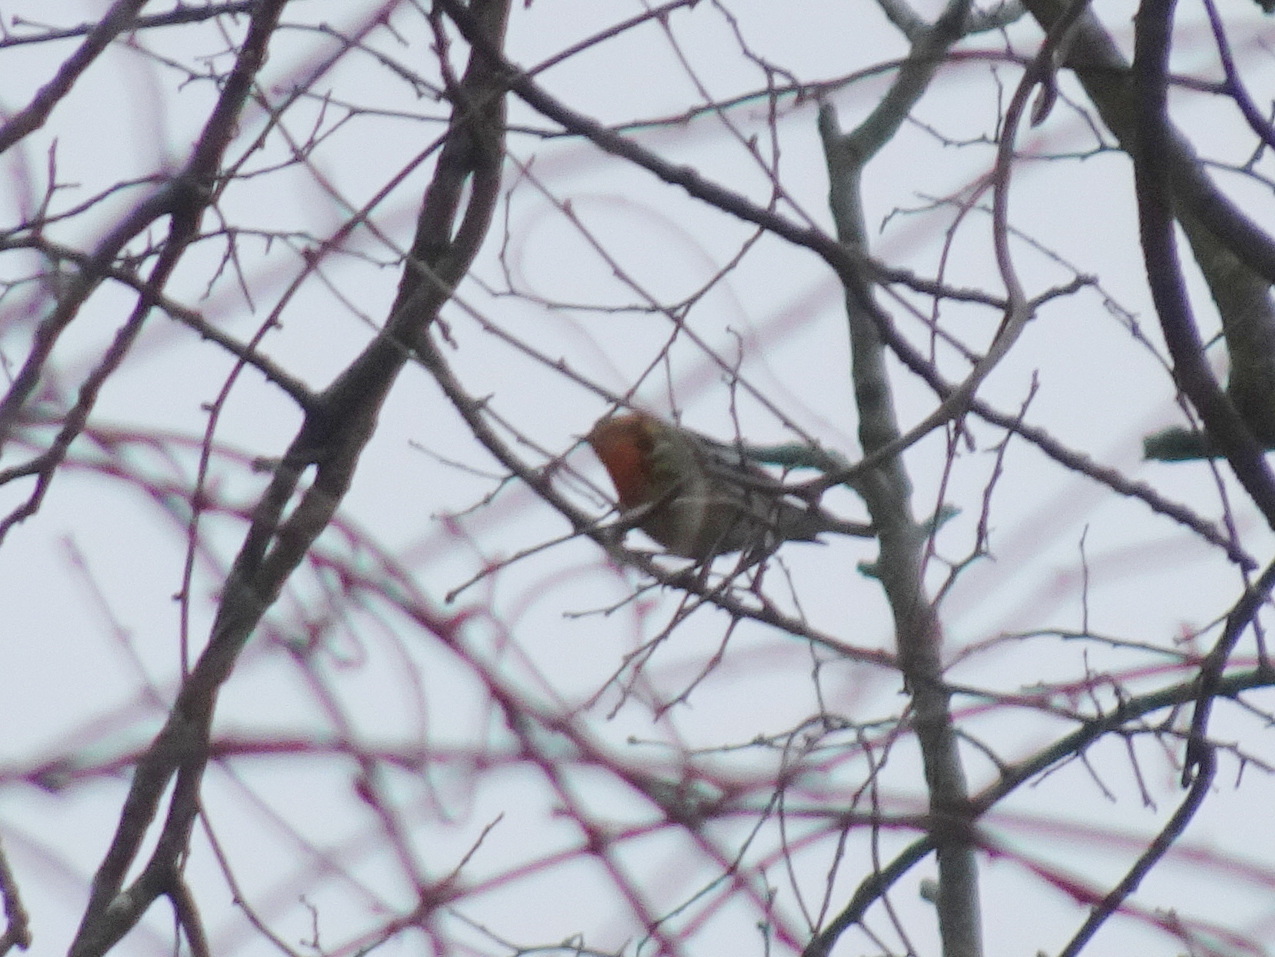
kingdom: Animalia
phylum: Chordata
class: Aves
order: Passeriformes
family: Parulidae
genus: Setophaga
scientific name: Setophaga fusca
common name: Blackburnian warbler
